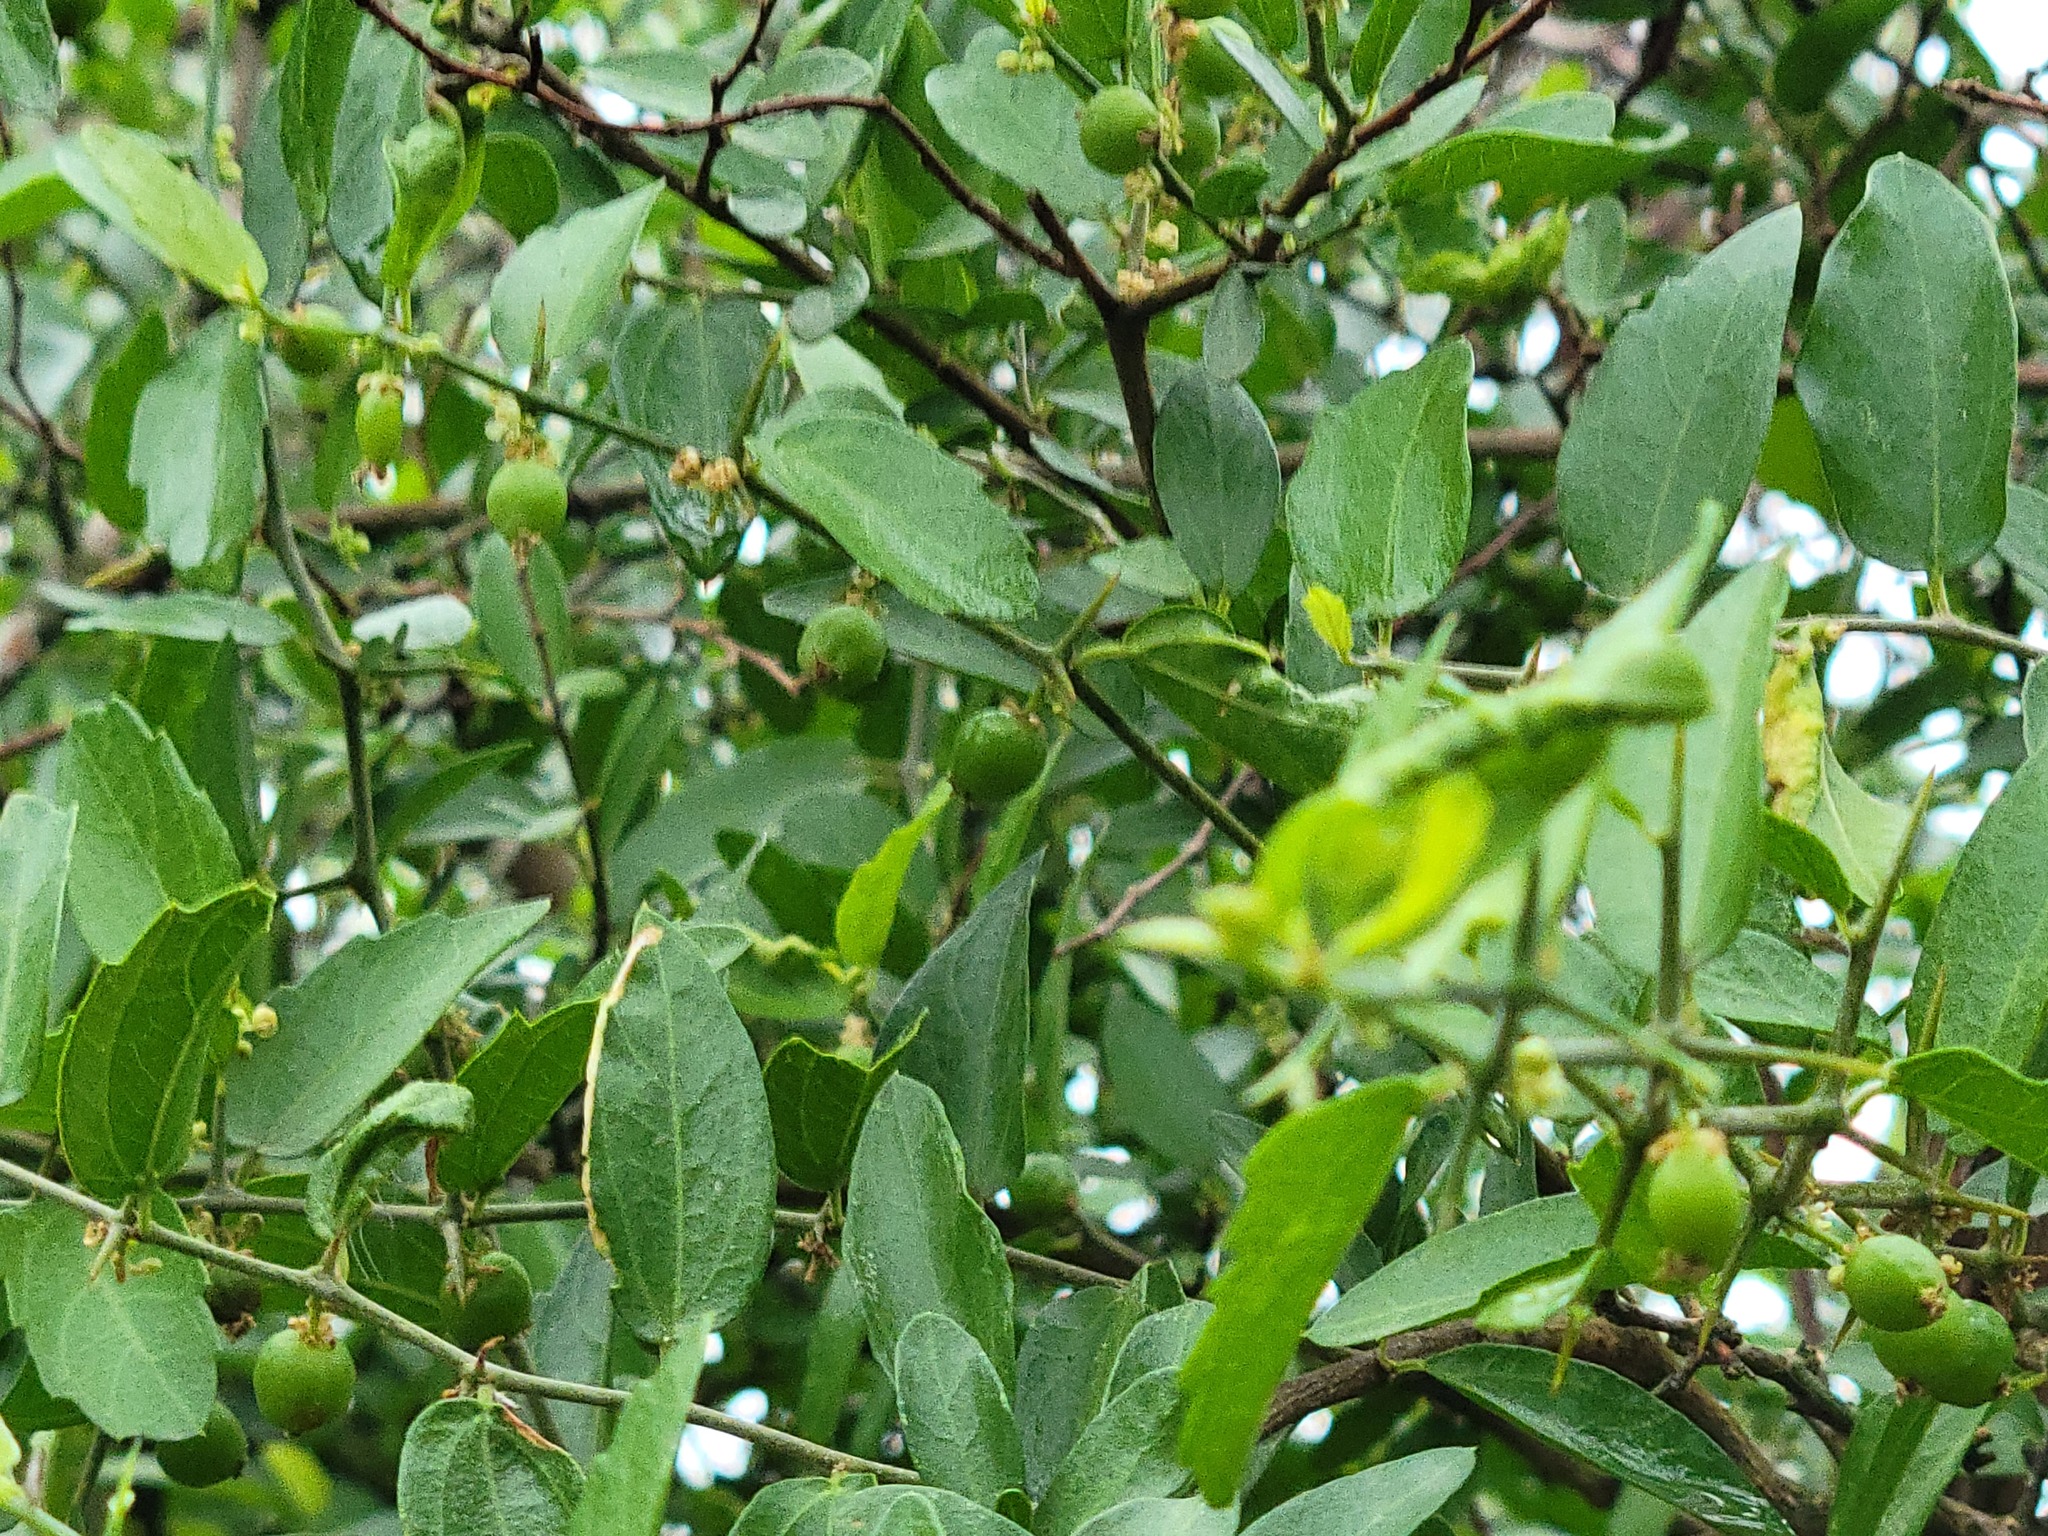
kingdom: Plantae
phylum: Tracheophyta
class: Magnoliopsida
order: Rosales
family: Cannabaceae
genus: Celtis
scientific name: Celtis pallida
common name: Desert hackberry
